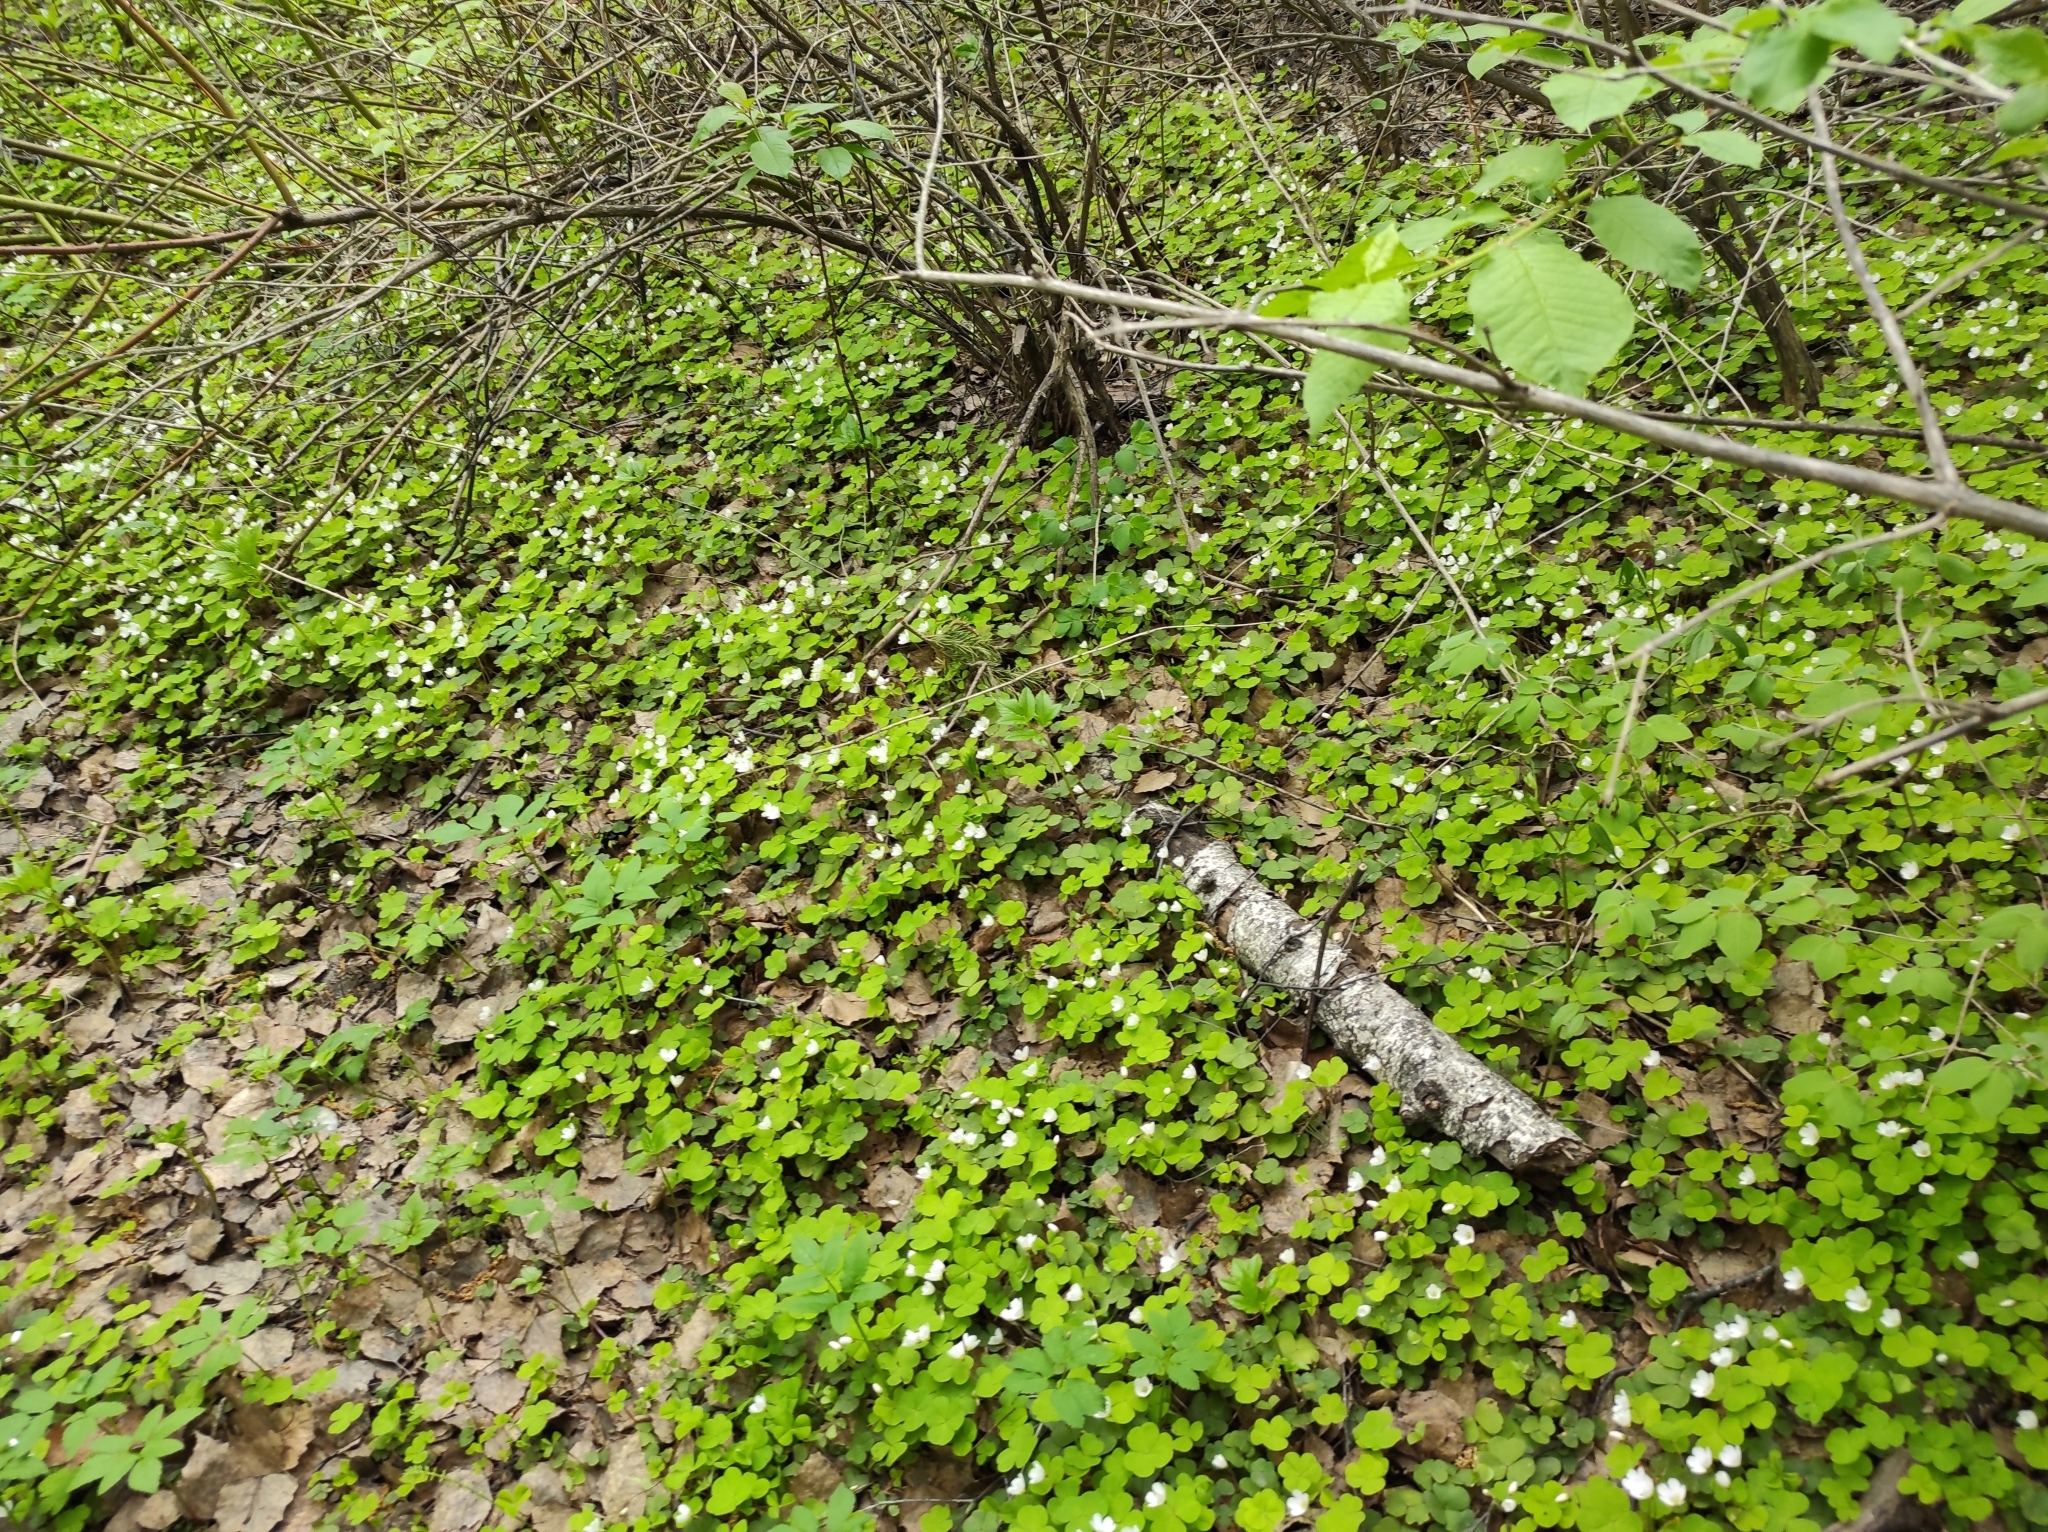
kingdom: Plantae
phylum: Tracheophyta
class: Magnoliopsida
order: Oxalidales
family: Oxalidaceae
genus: Oxalis
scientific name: Oxalis acetosella
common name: Wood-sorrel
